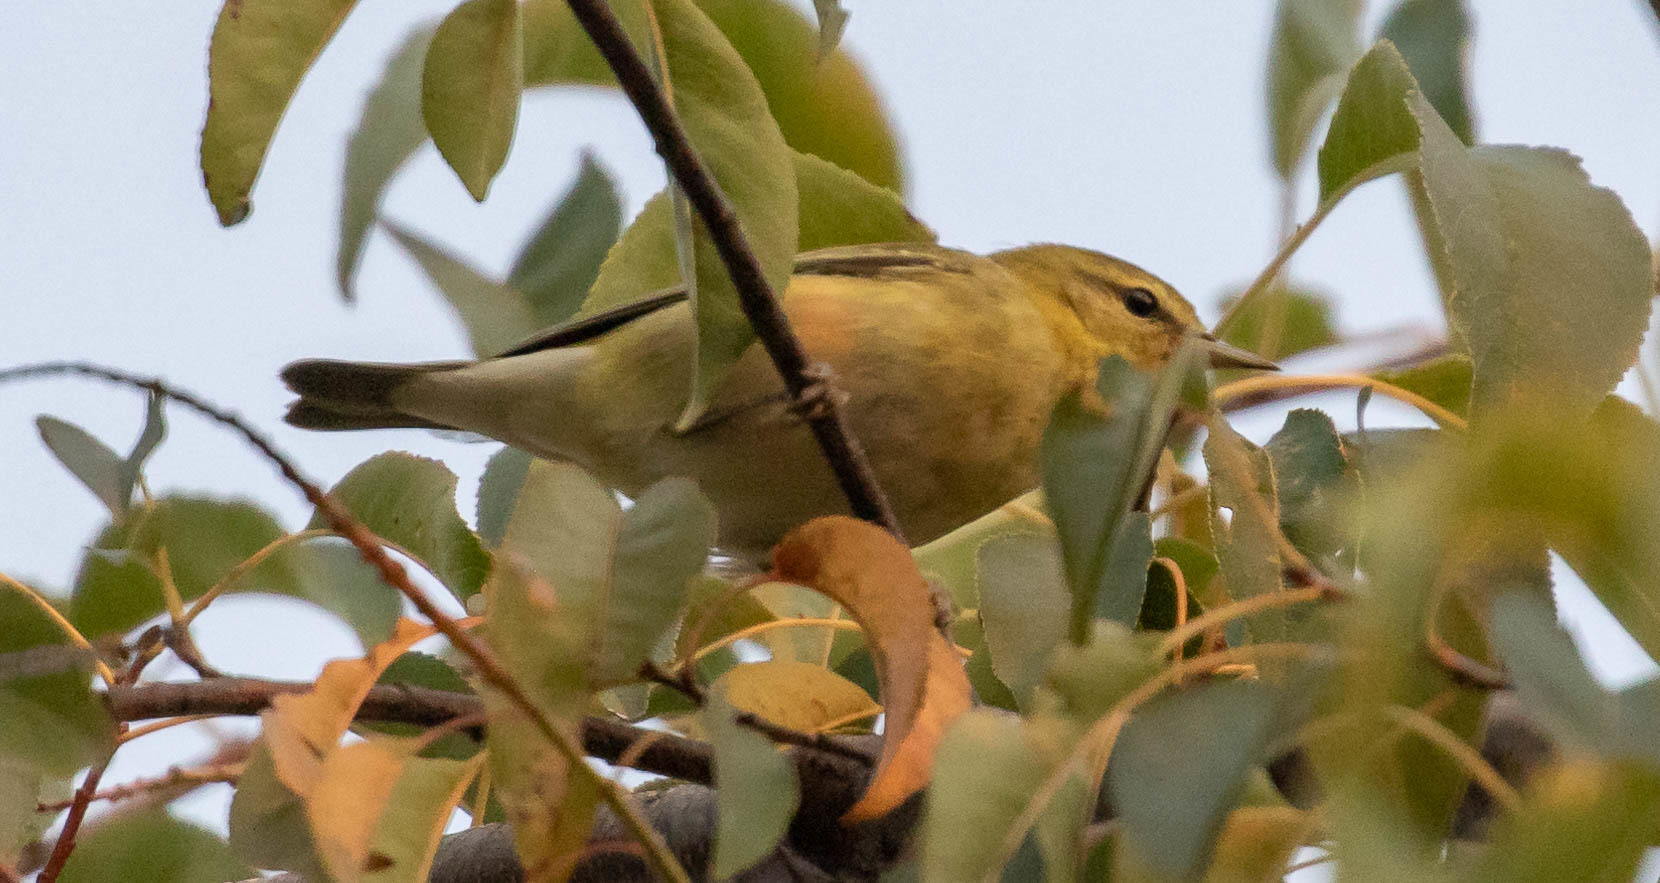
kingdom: Animalia
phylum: Chordata
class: Aves
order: Passeriformes
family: Parulidae
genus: Leiothlypis
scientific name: Leiothlypis peregrina
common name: Tennessee warbler
